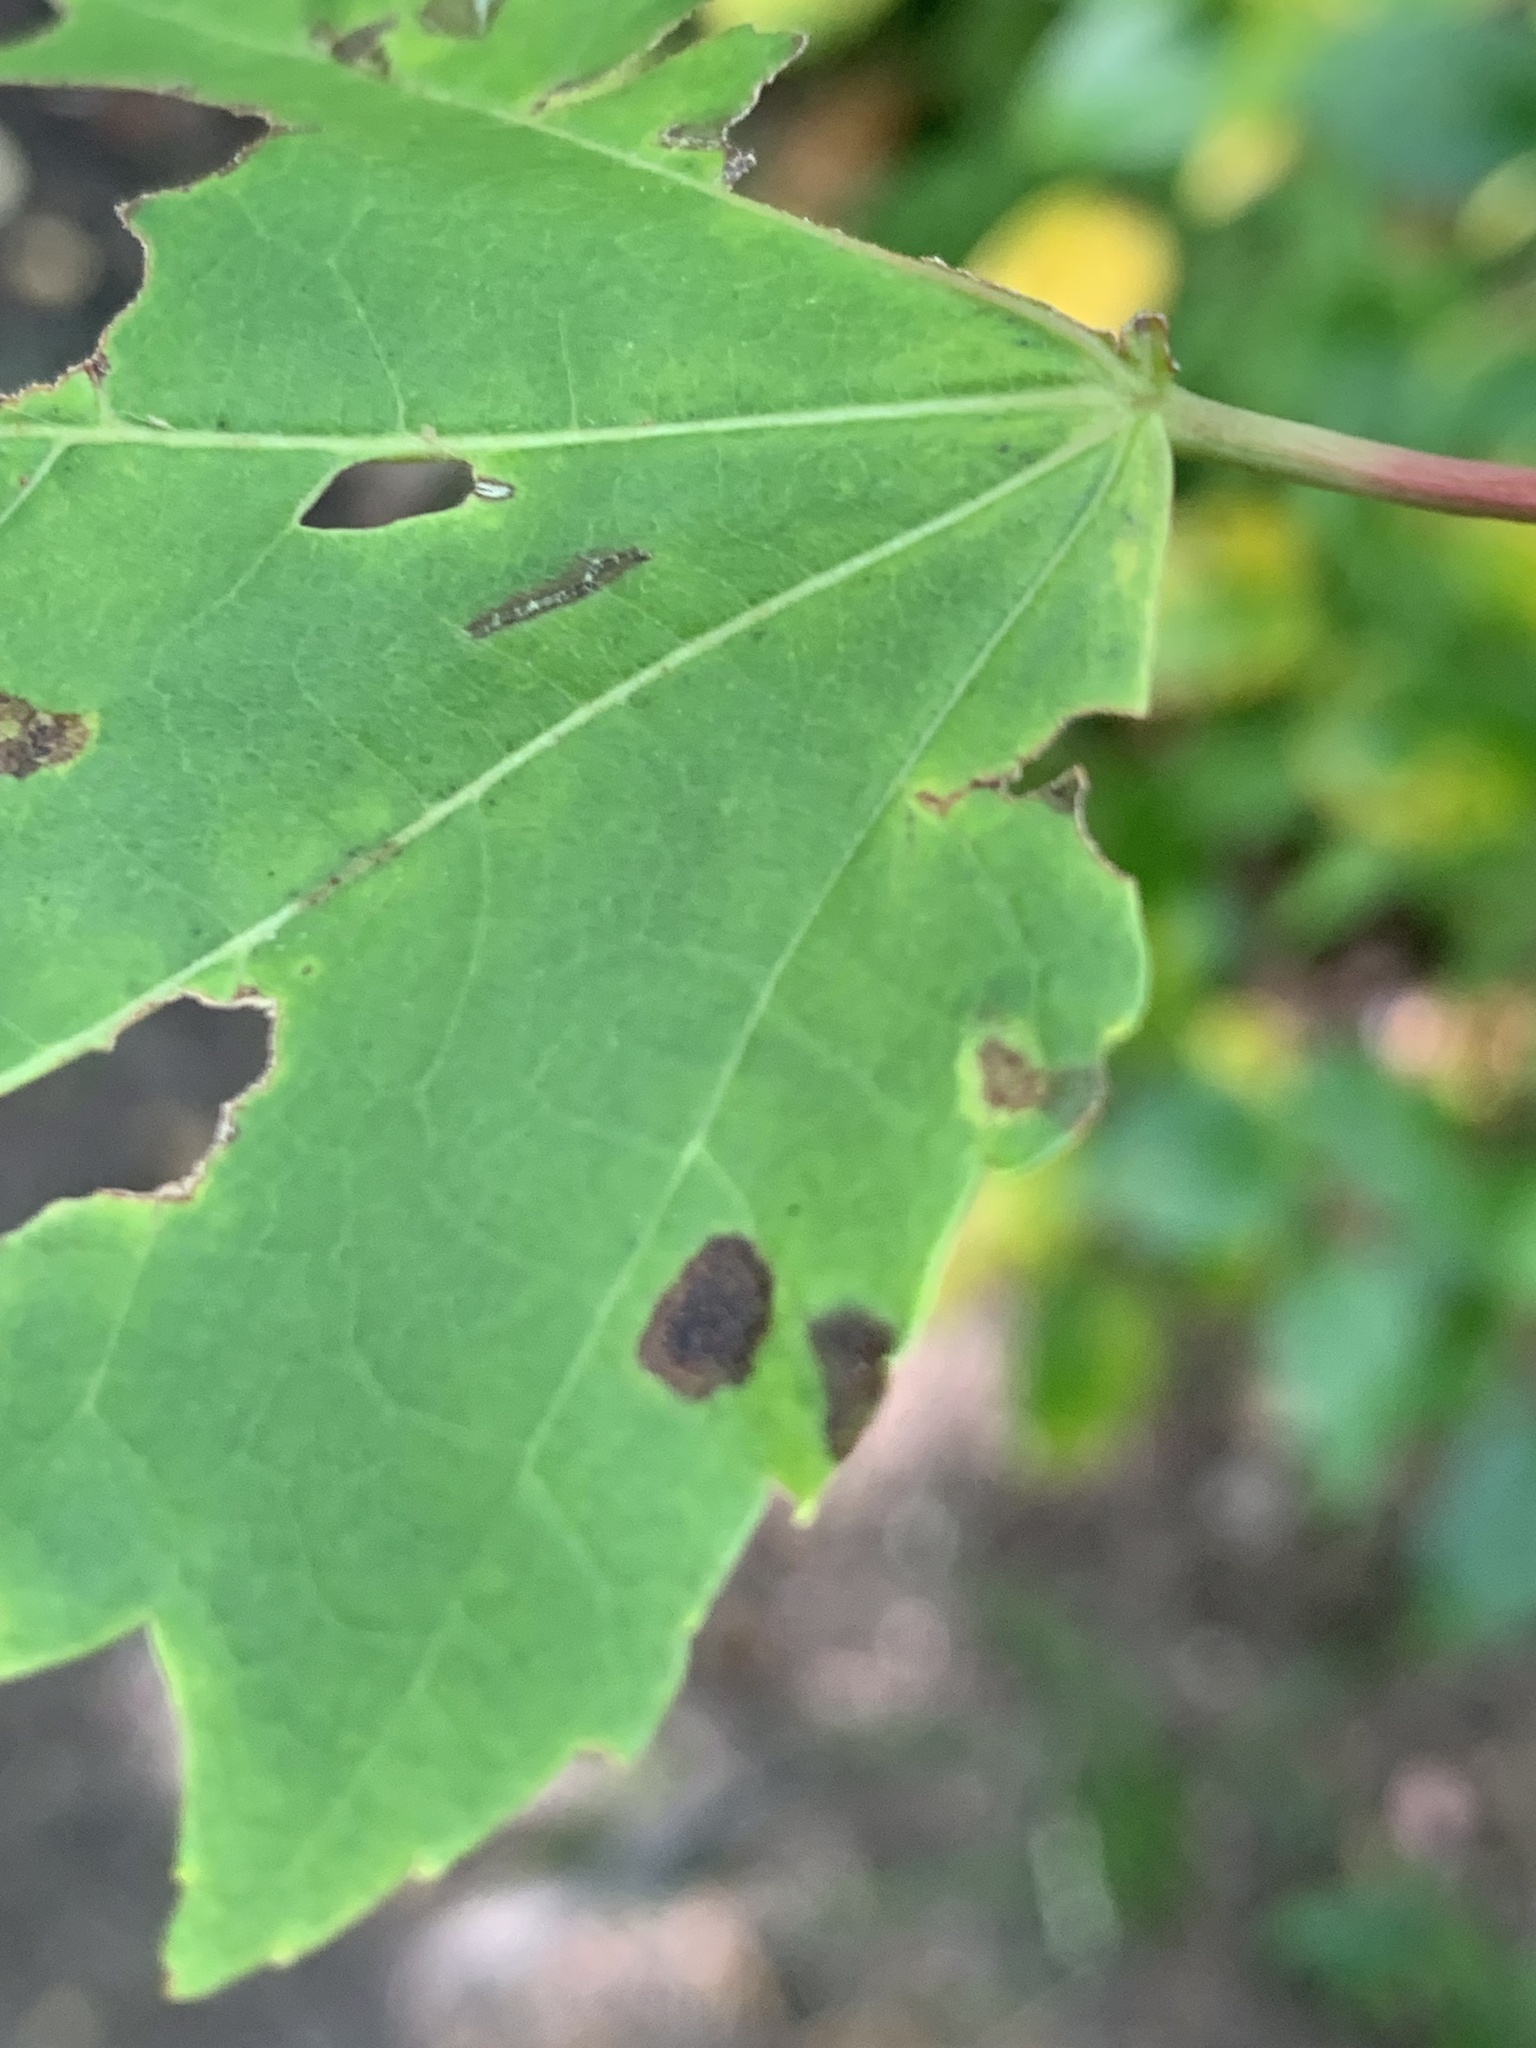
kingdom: Animalia
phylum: Arthropoda
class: Arachnida
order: Trombidiformes
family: Eriophyidae
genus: Aceria
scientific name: Aceria mayae
